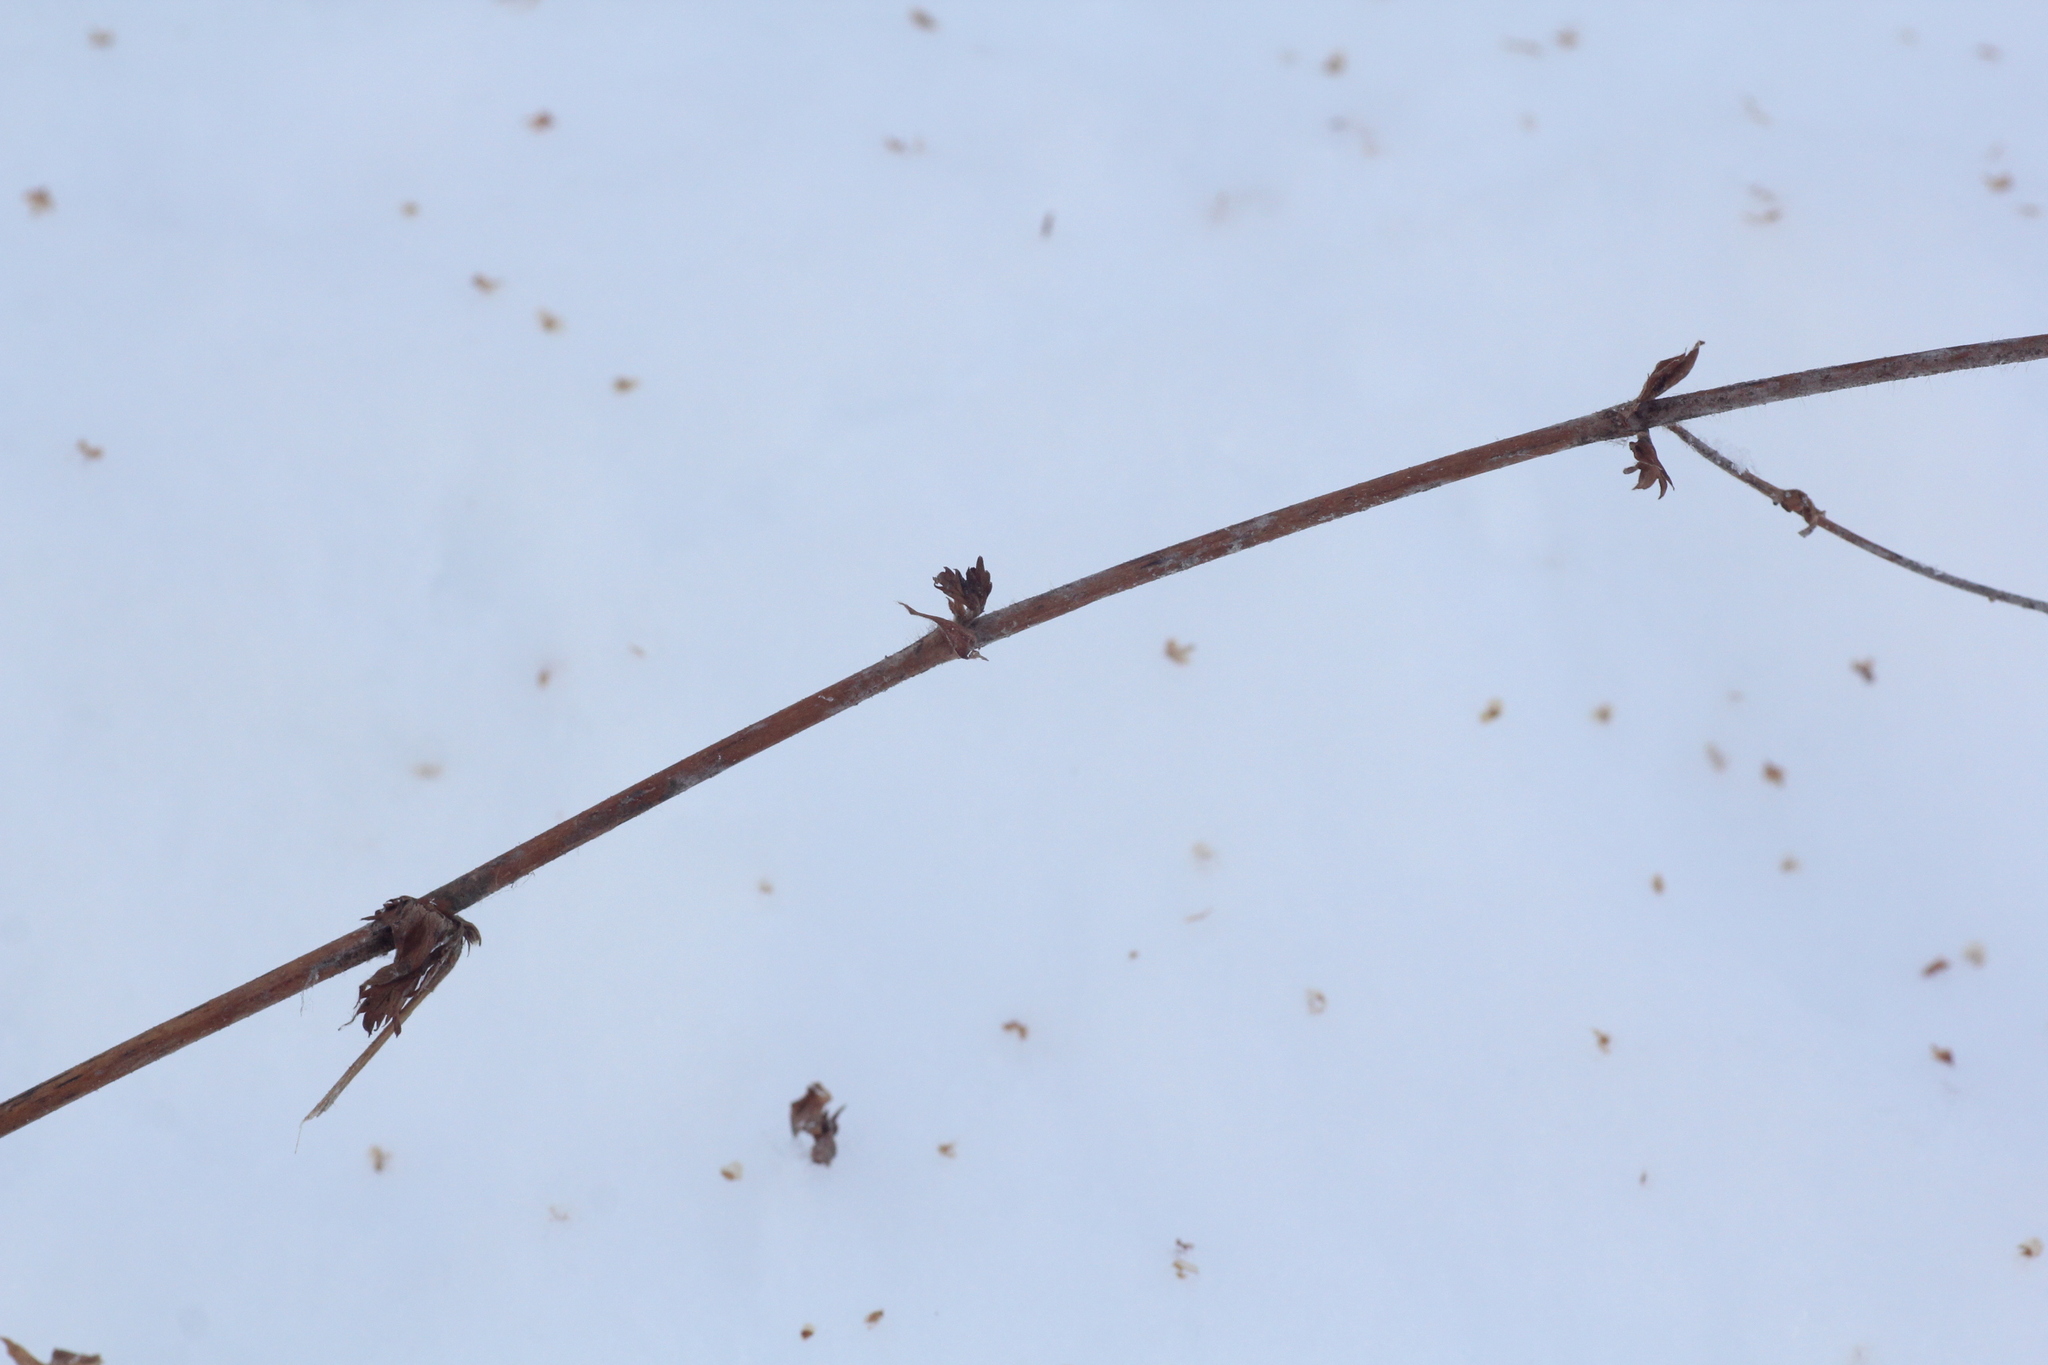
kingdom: Plantae
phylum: Tracheophyta
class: Magnoliopsida
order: Rosales
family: Rosaceae
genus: Agrimonia
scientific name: Agrimonia pilosa
